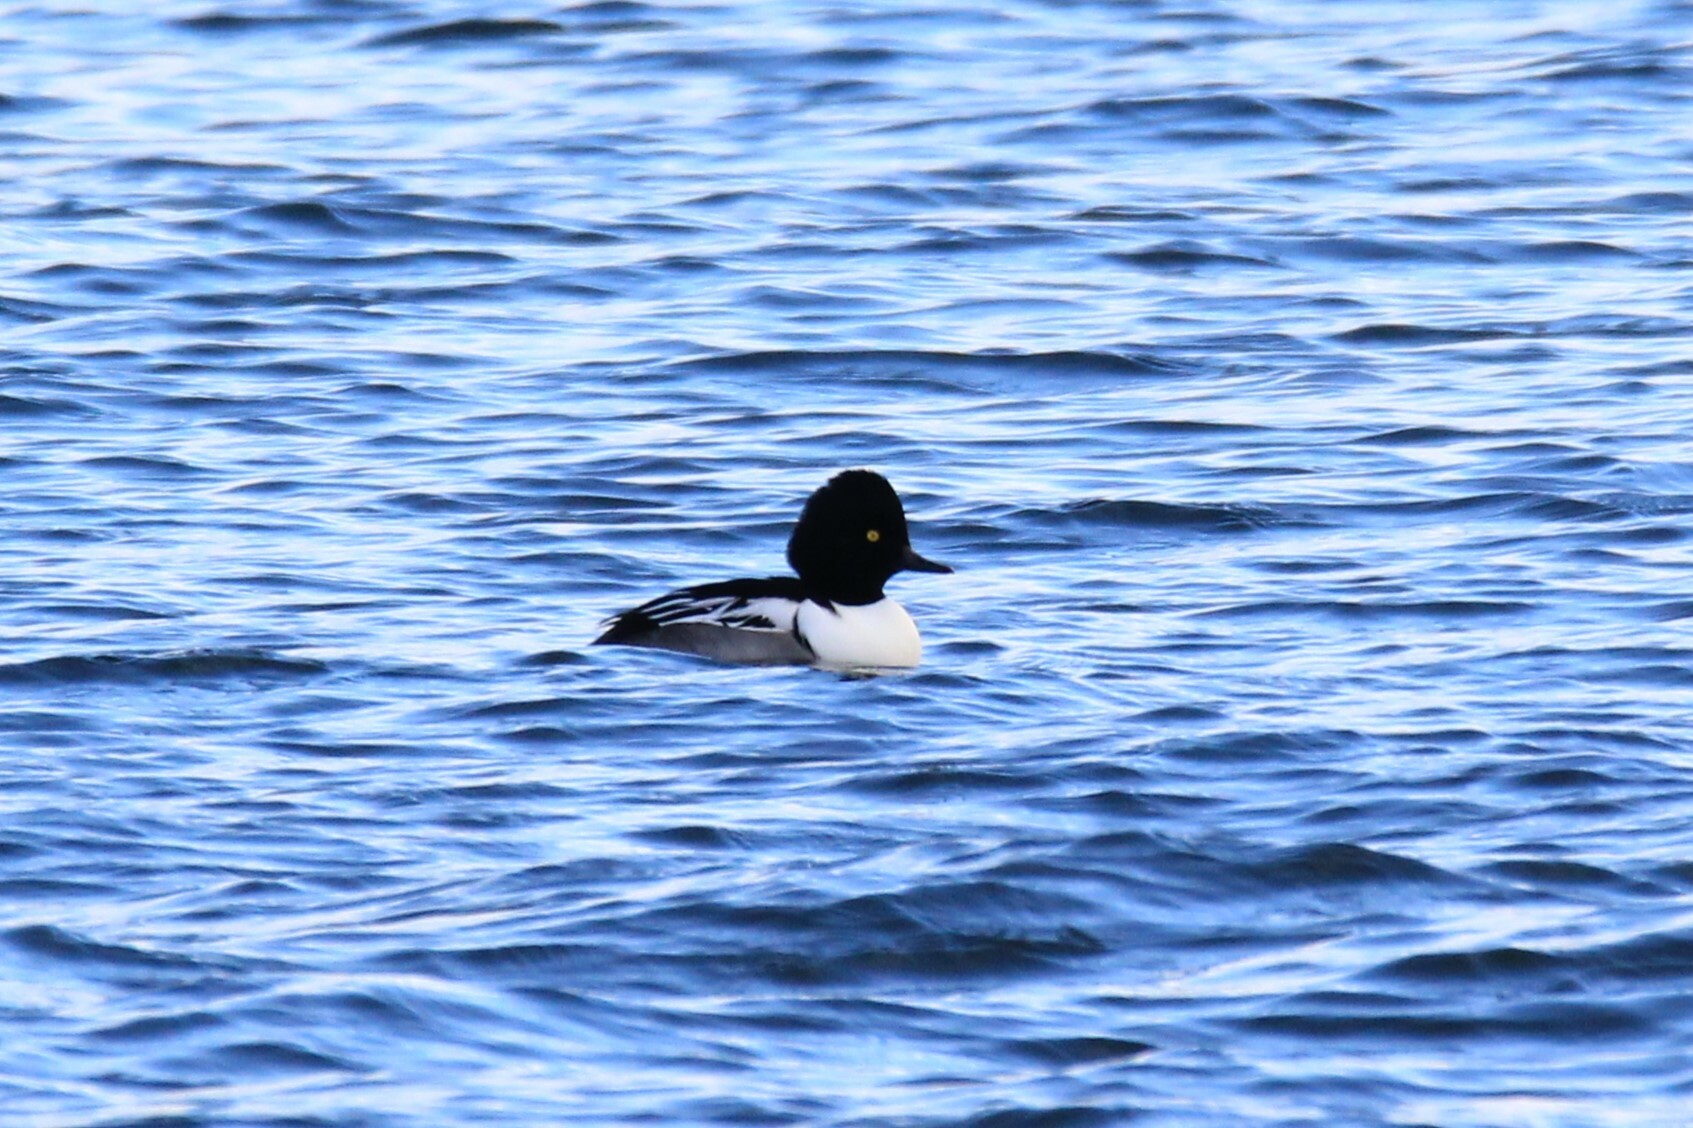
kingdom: Animalia
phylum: Chordata
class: Aves
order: Anseriformes
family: Anatidae
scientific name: Anatidae
